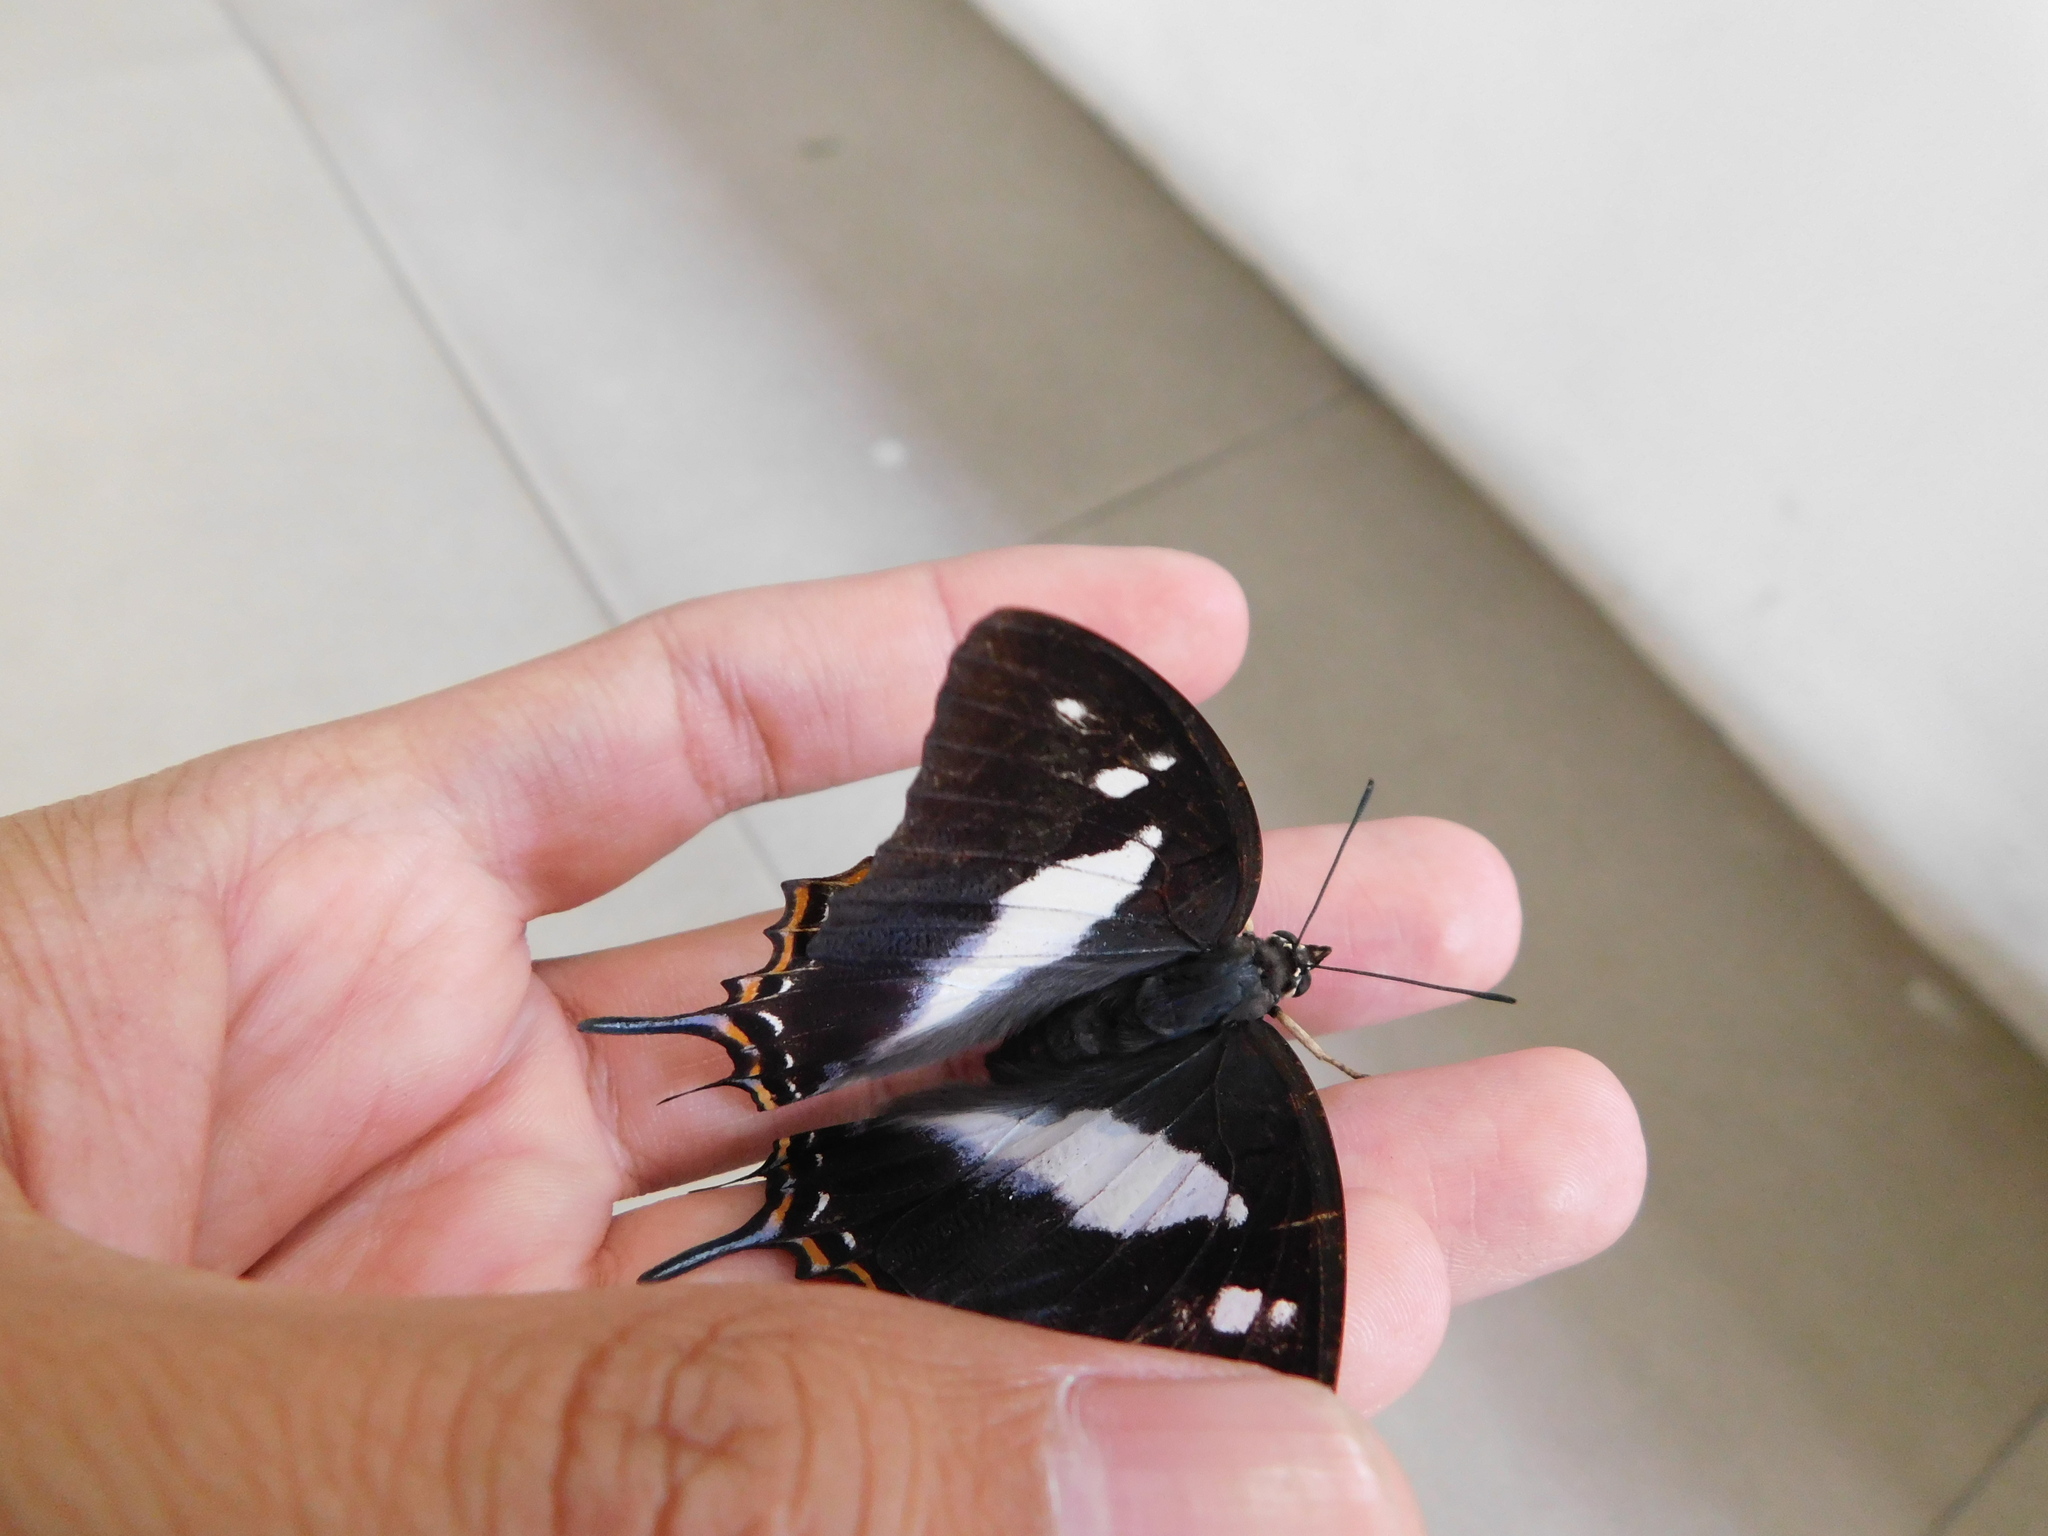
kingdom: Animalia
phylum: Arthropoda
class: Insecta
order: Lepidoptera
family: Nymphalidae
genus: Polyura
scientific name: Polyura schreiber
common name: Blue nawab
